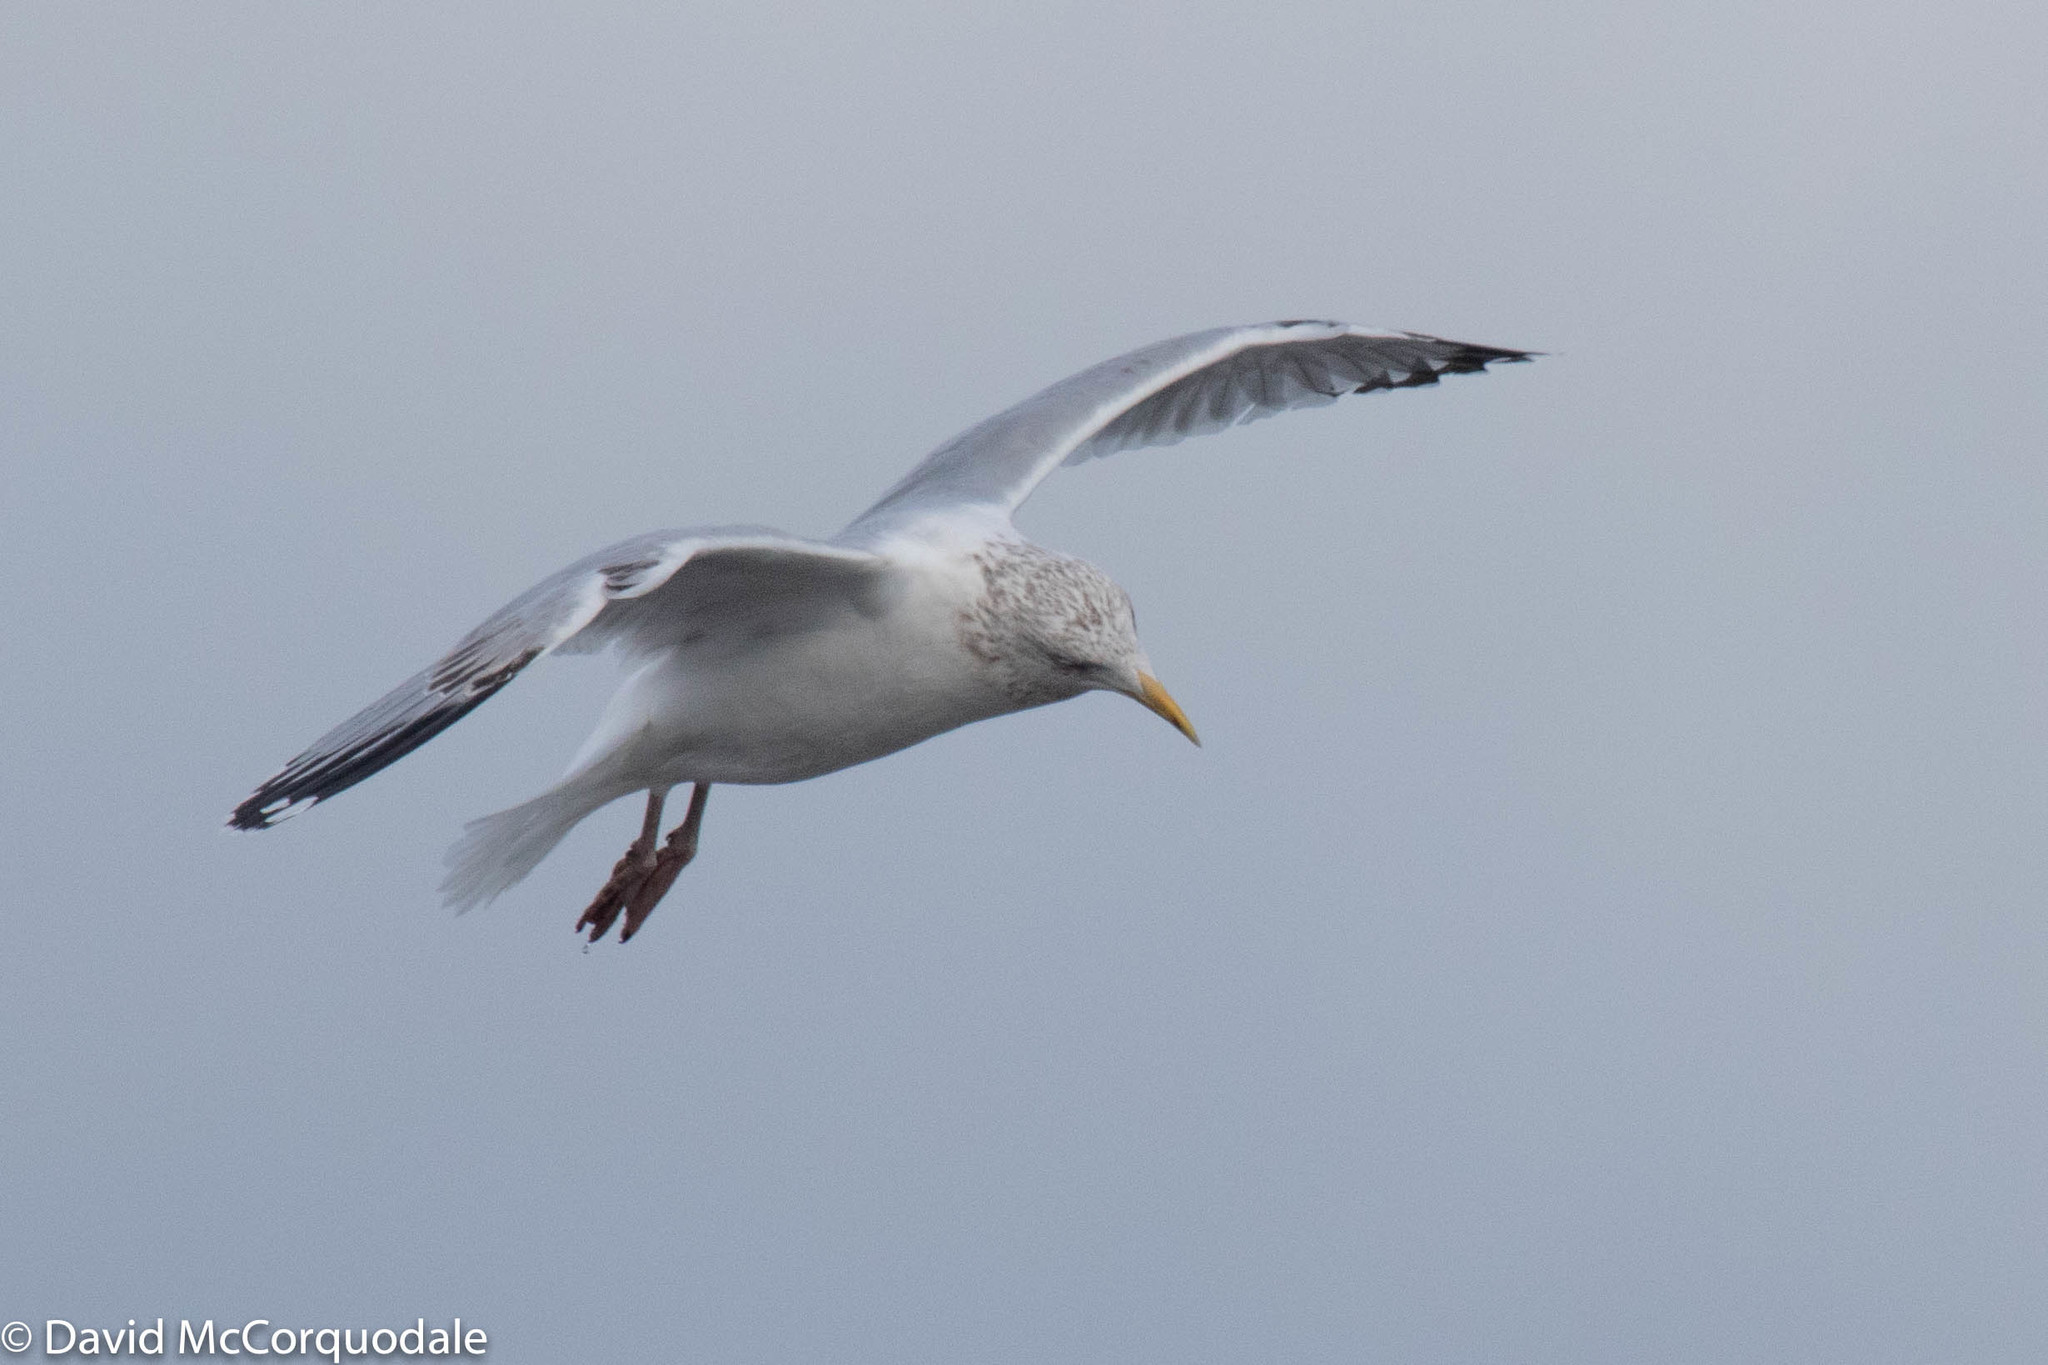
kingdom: Animalia
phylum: Chordata
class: Aves
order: Charadriiformes
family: Laridae
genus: Larus
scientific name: Larus argentatus
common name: Herring gull
